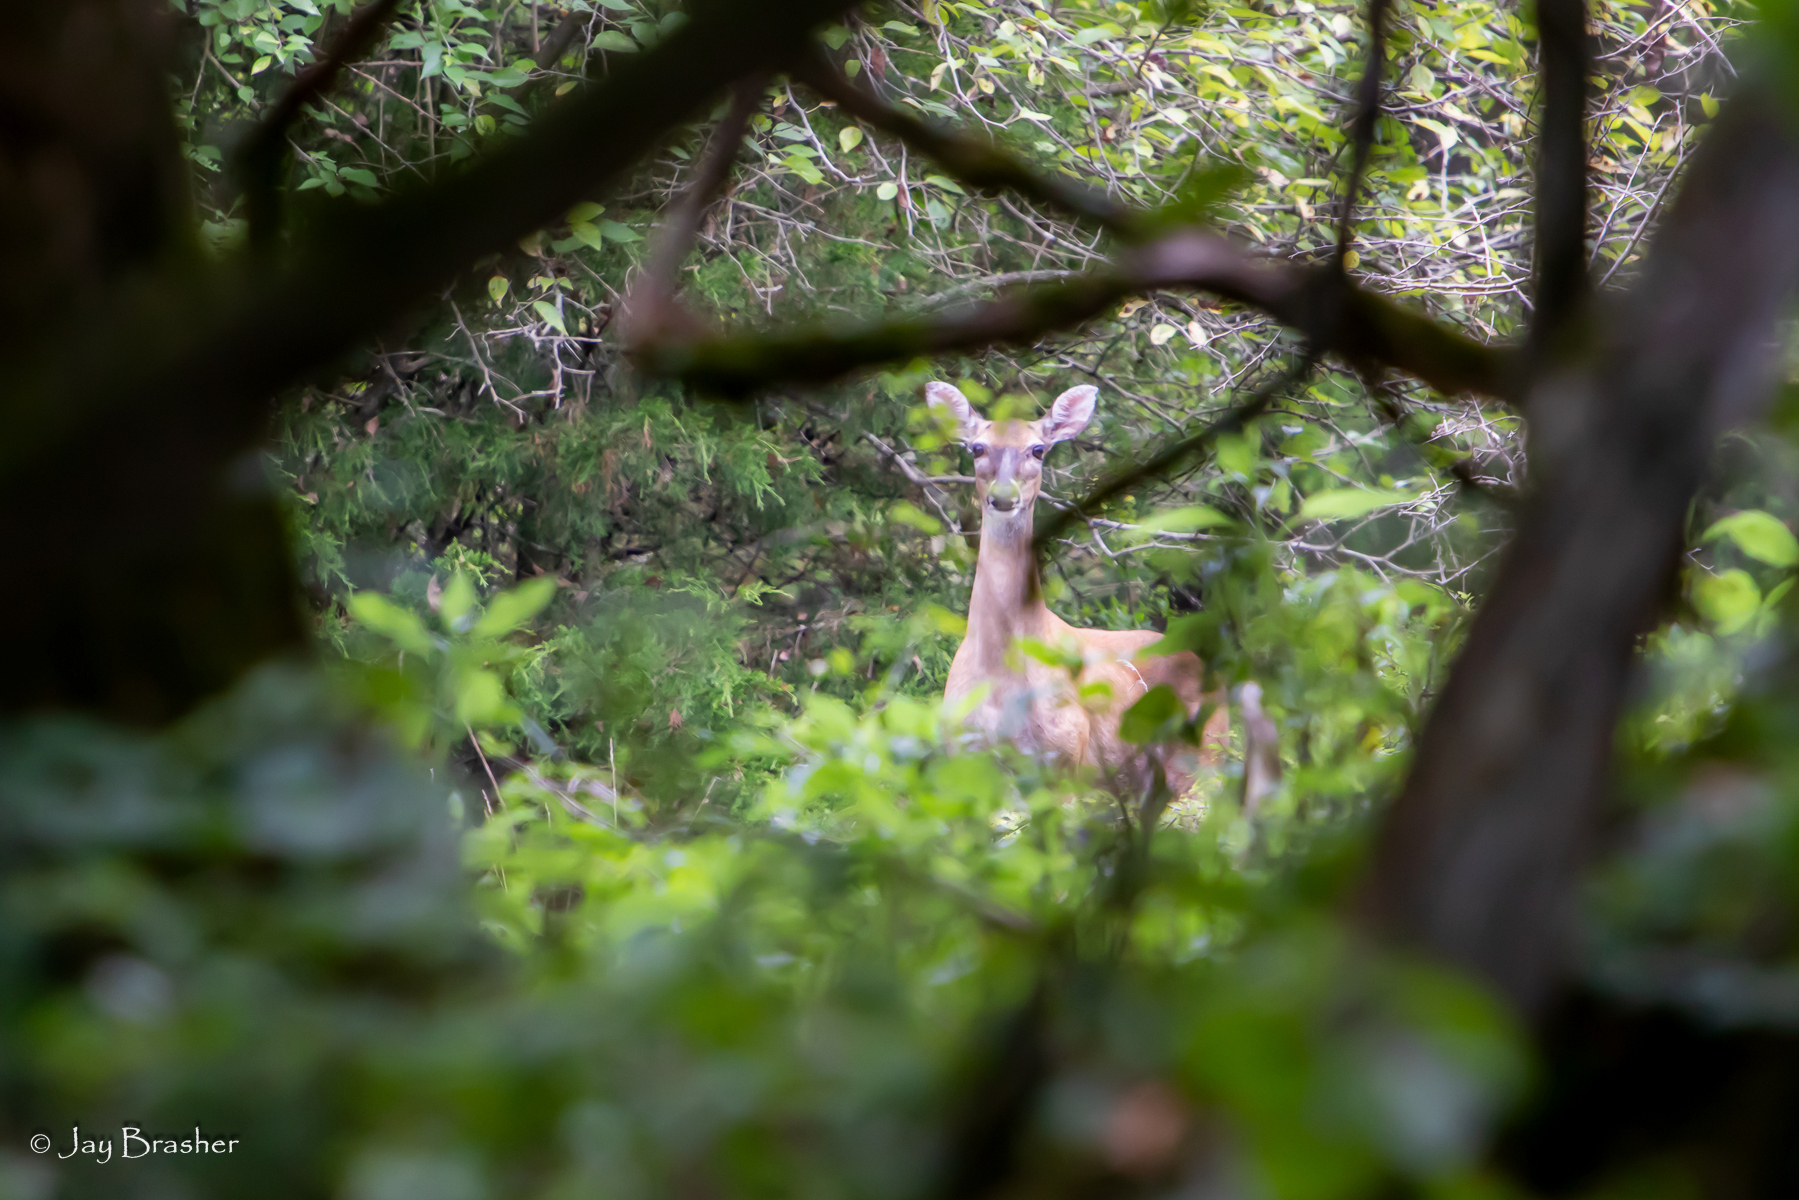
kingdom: Animalia
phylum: Chordata
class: Mammalia
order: Artiodactyla
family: Cervidae
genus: Odocoileus
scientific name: Odocoileus virginianus
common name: White-tailed deer
